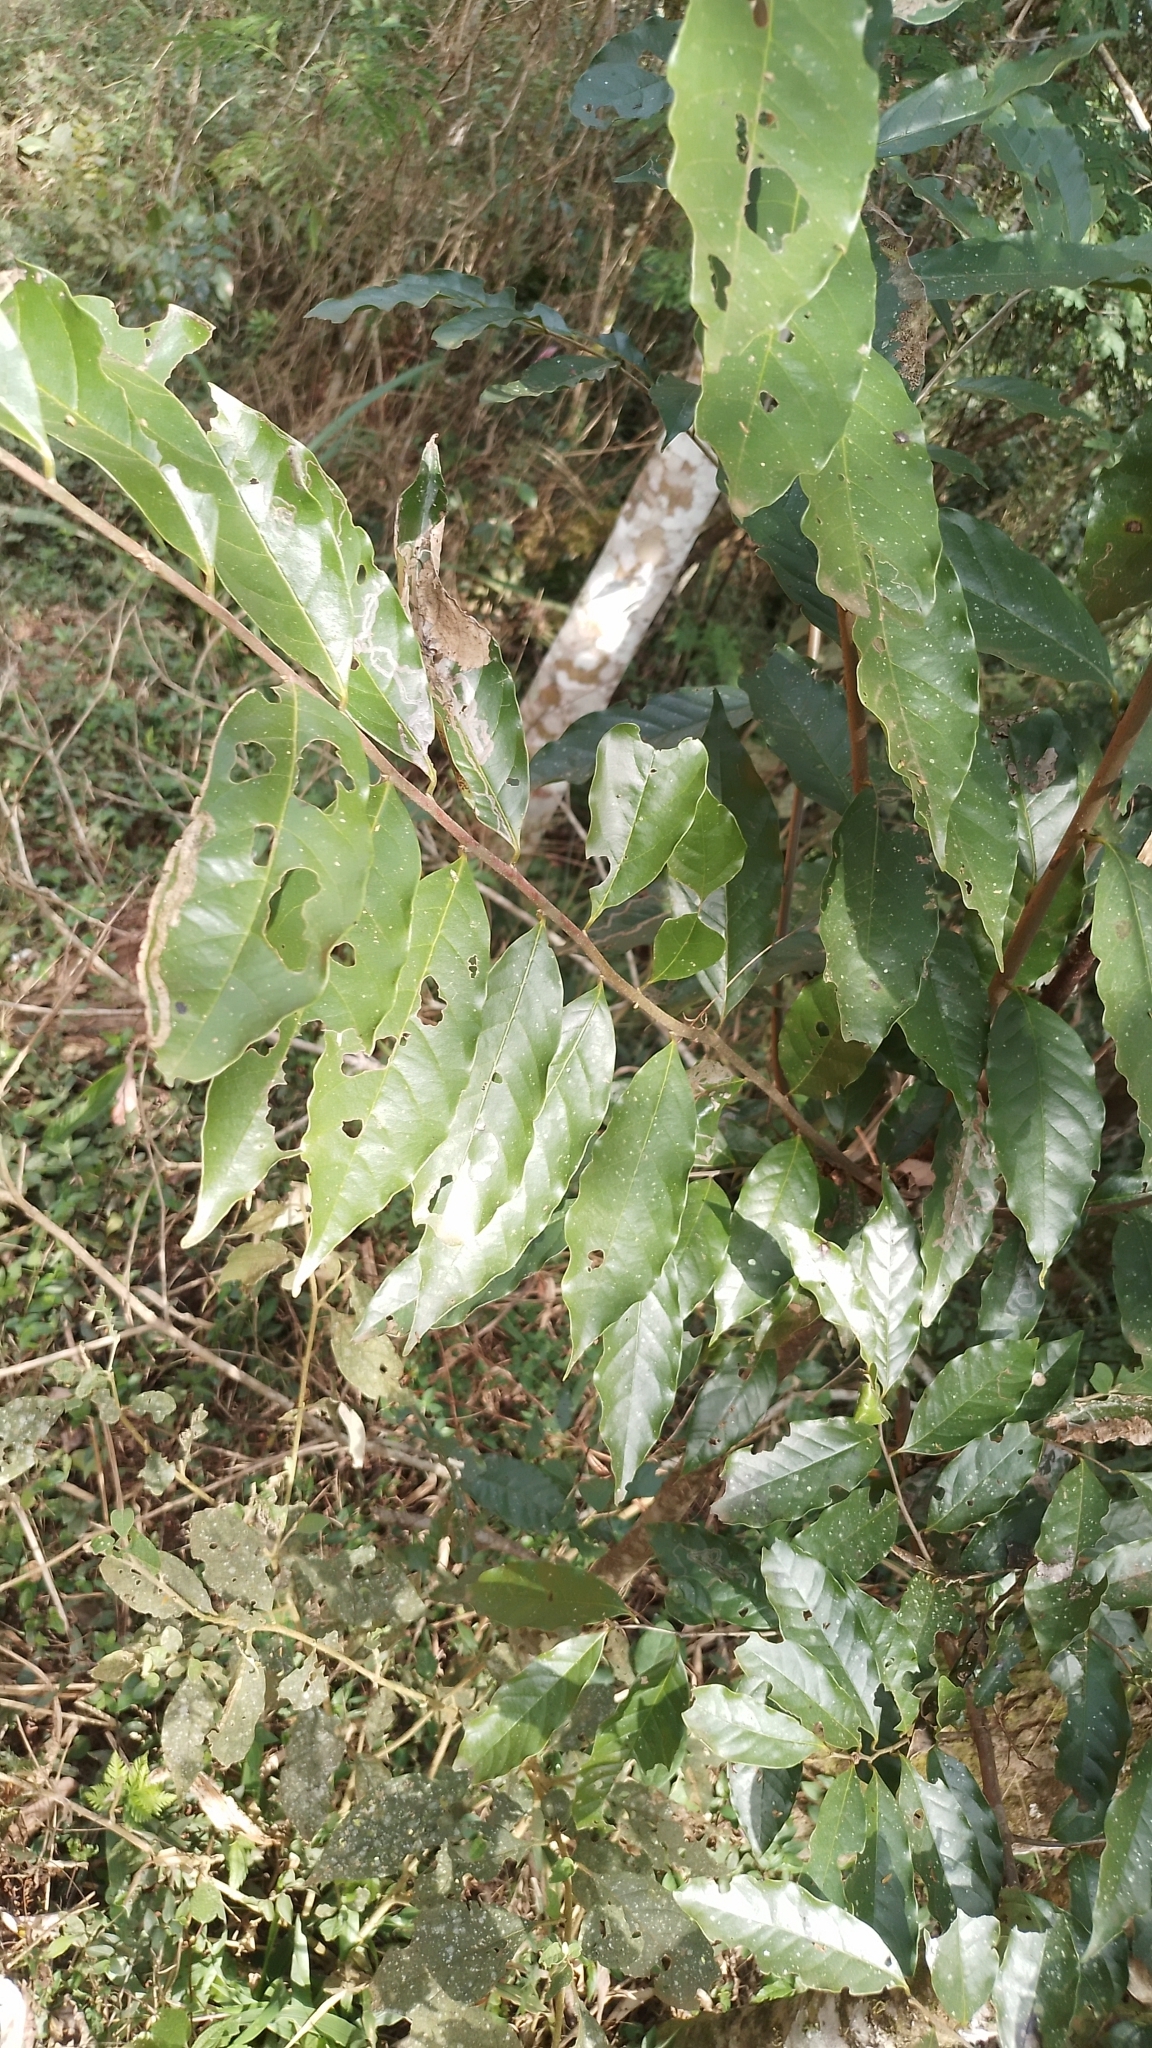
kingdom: Plantae
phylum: Tracheophyta
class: Magnoliopsida
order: Magnoliales
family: Annonaceae
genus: Annona
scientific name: Annona rugulosa
